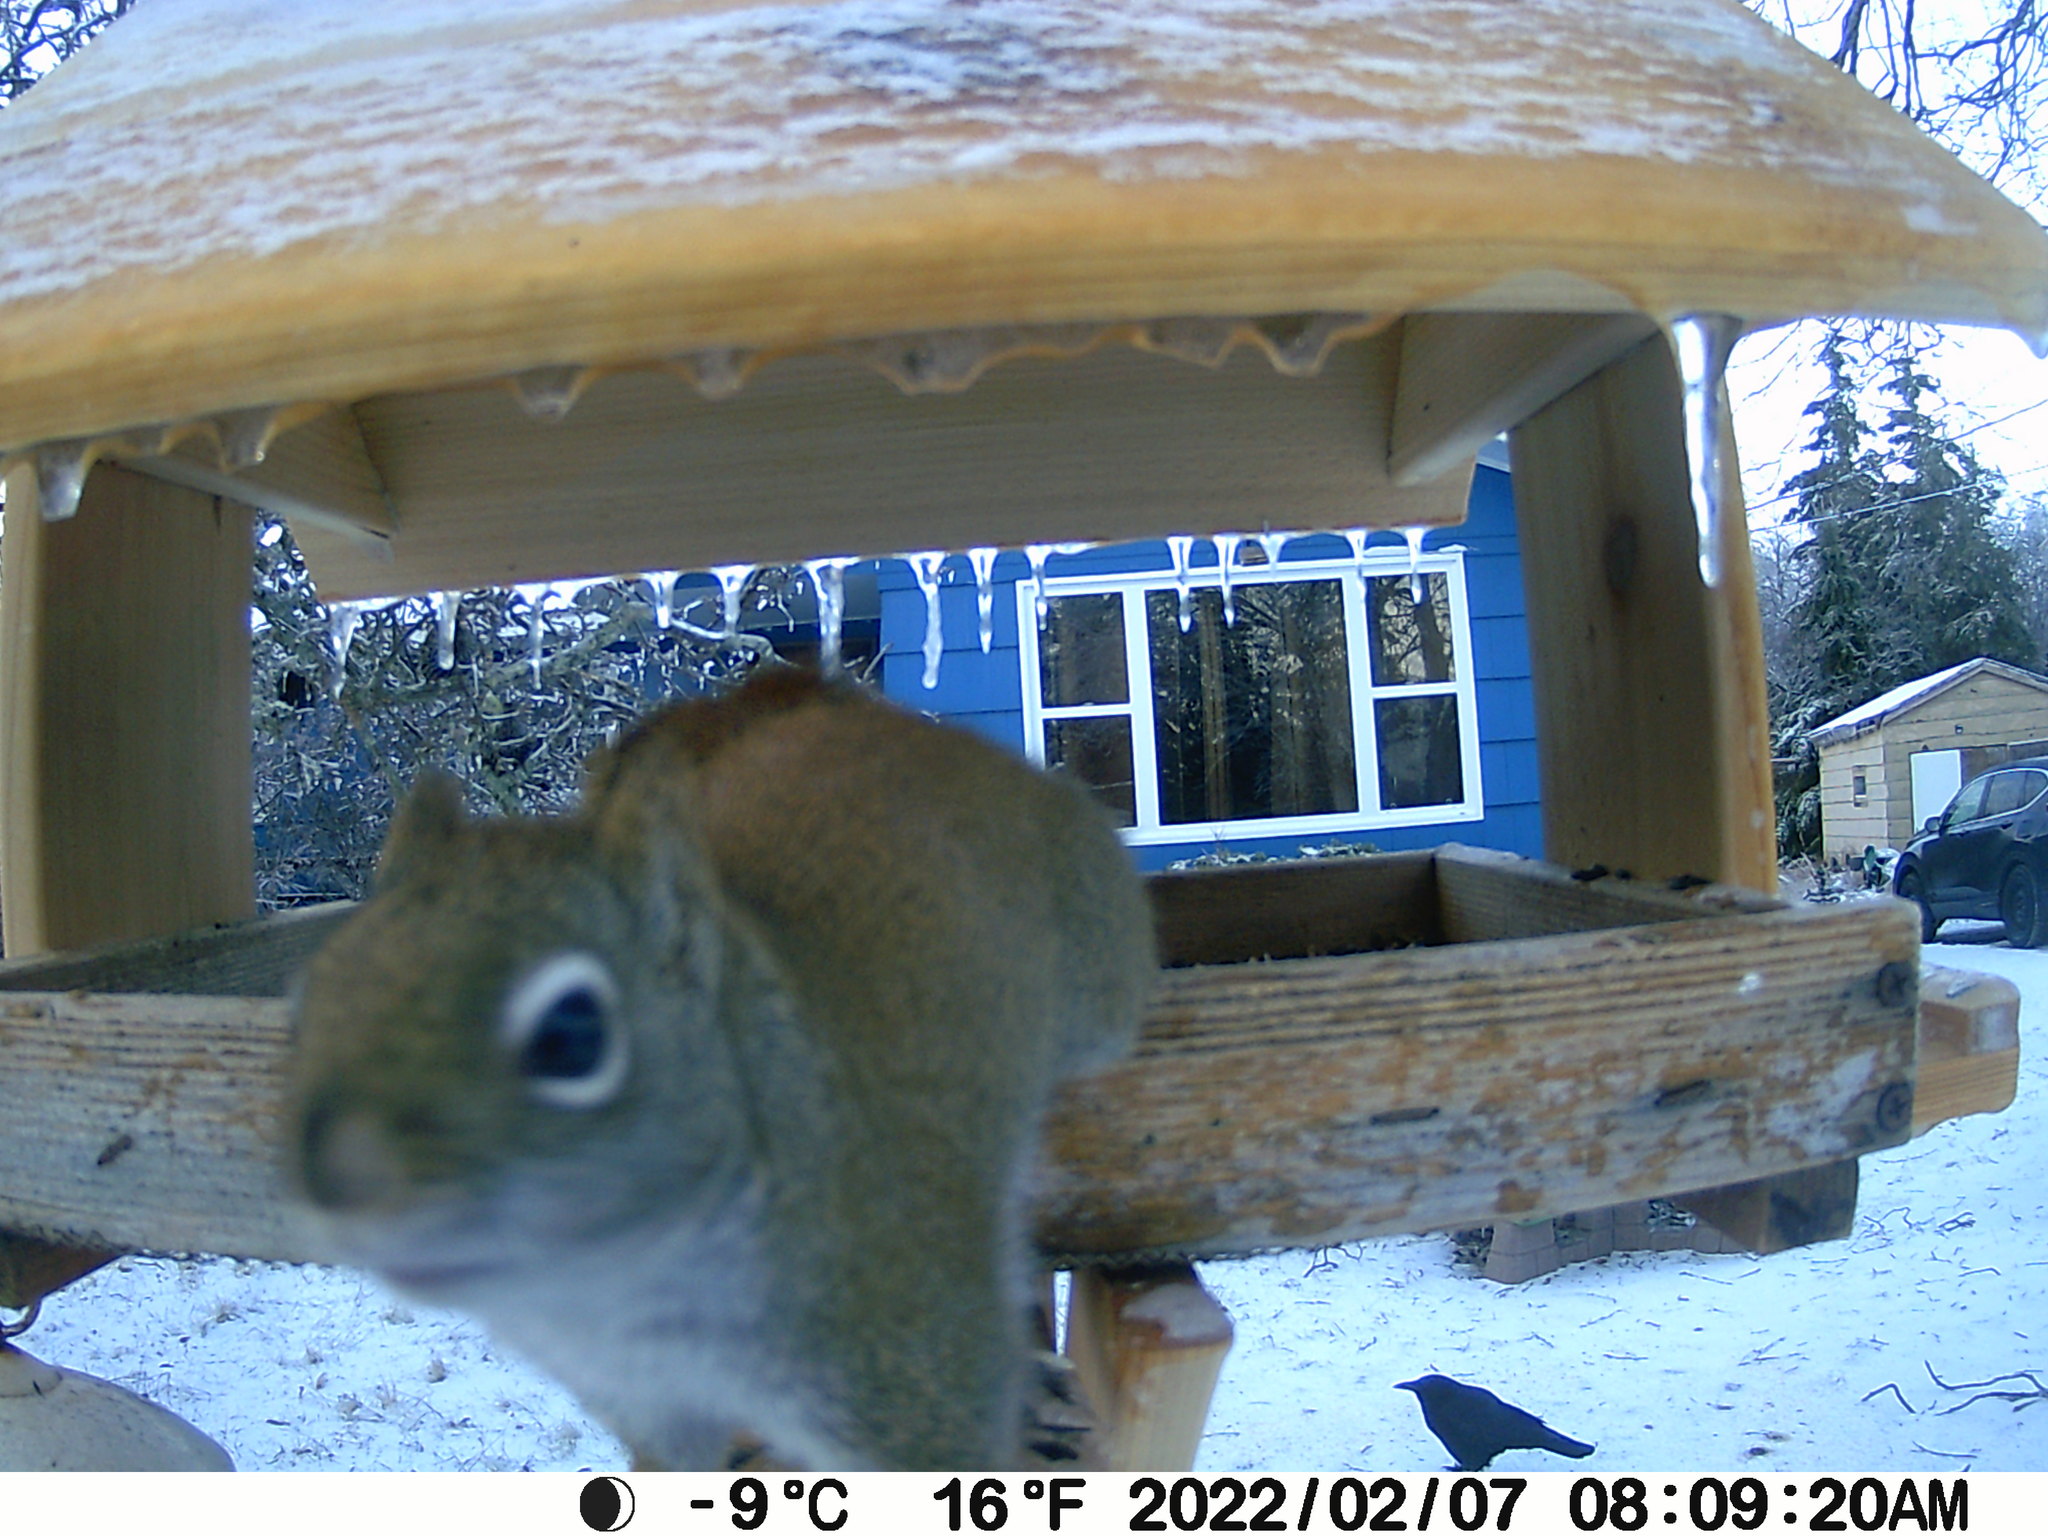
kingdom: Animalia
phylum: Chordata
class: Mammalia
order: Rodentia
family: Sciuridae
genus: Tamiasciurus
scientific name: Tamiasciurus hudsonicus
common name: Red squirrel
